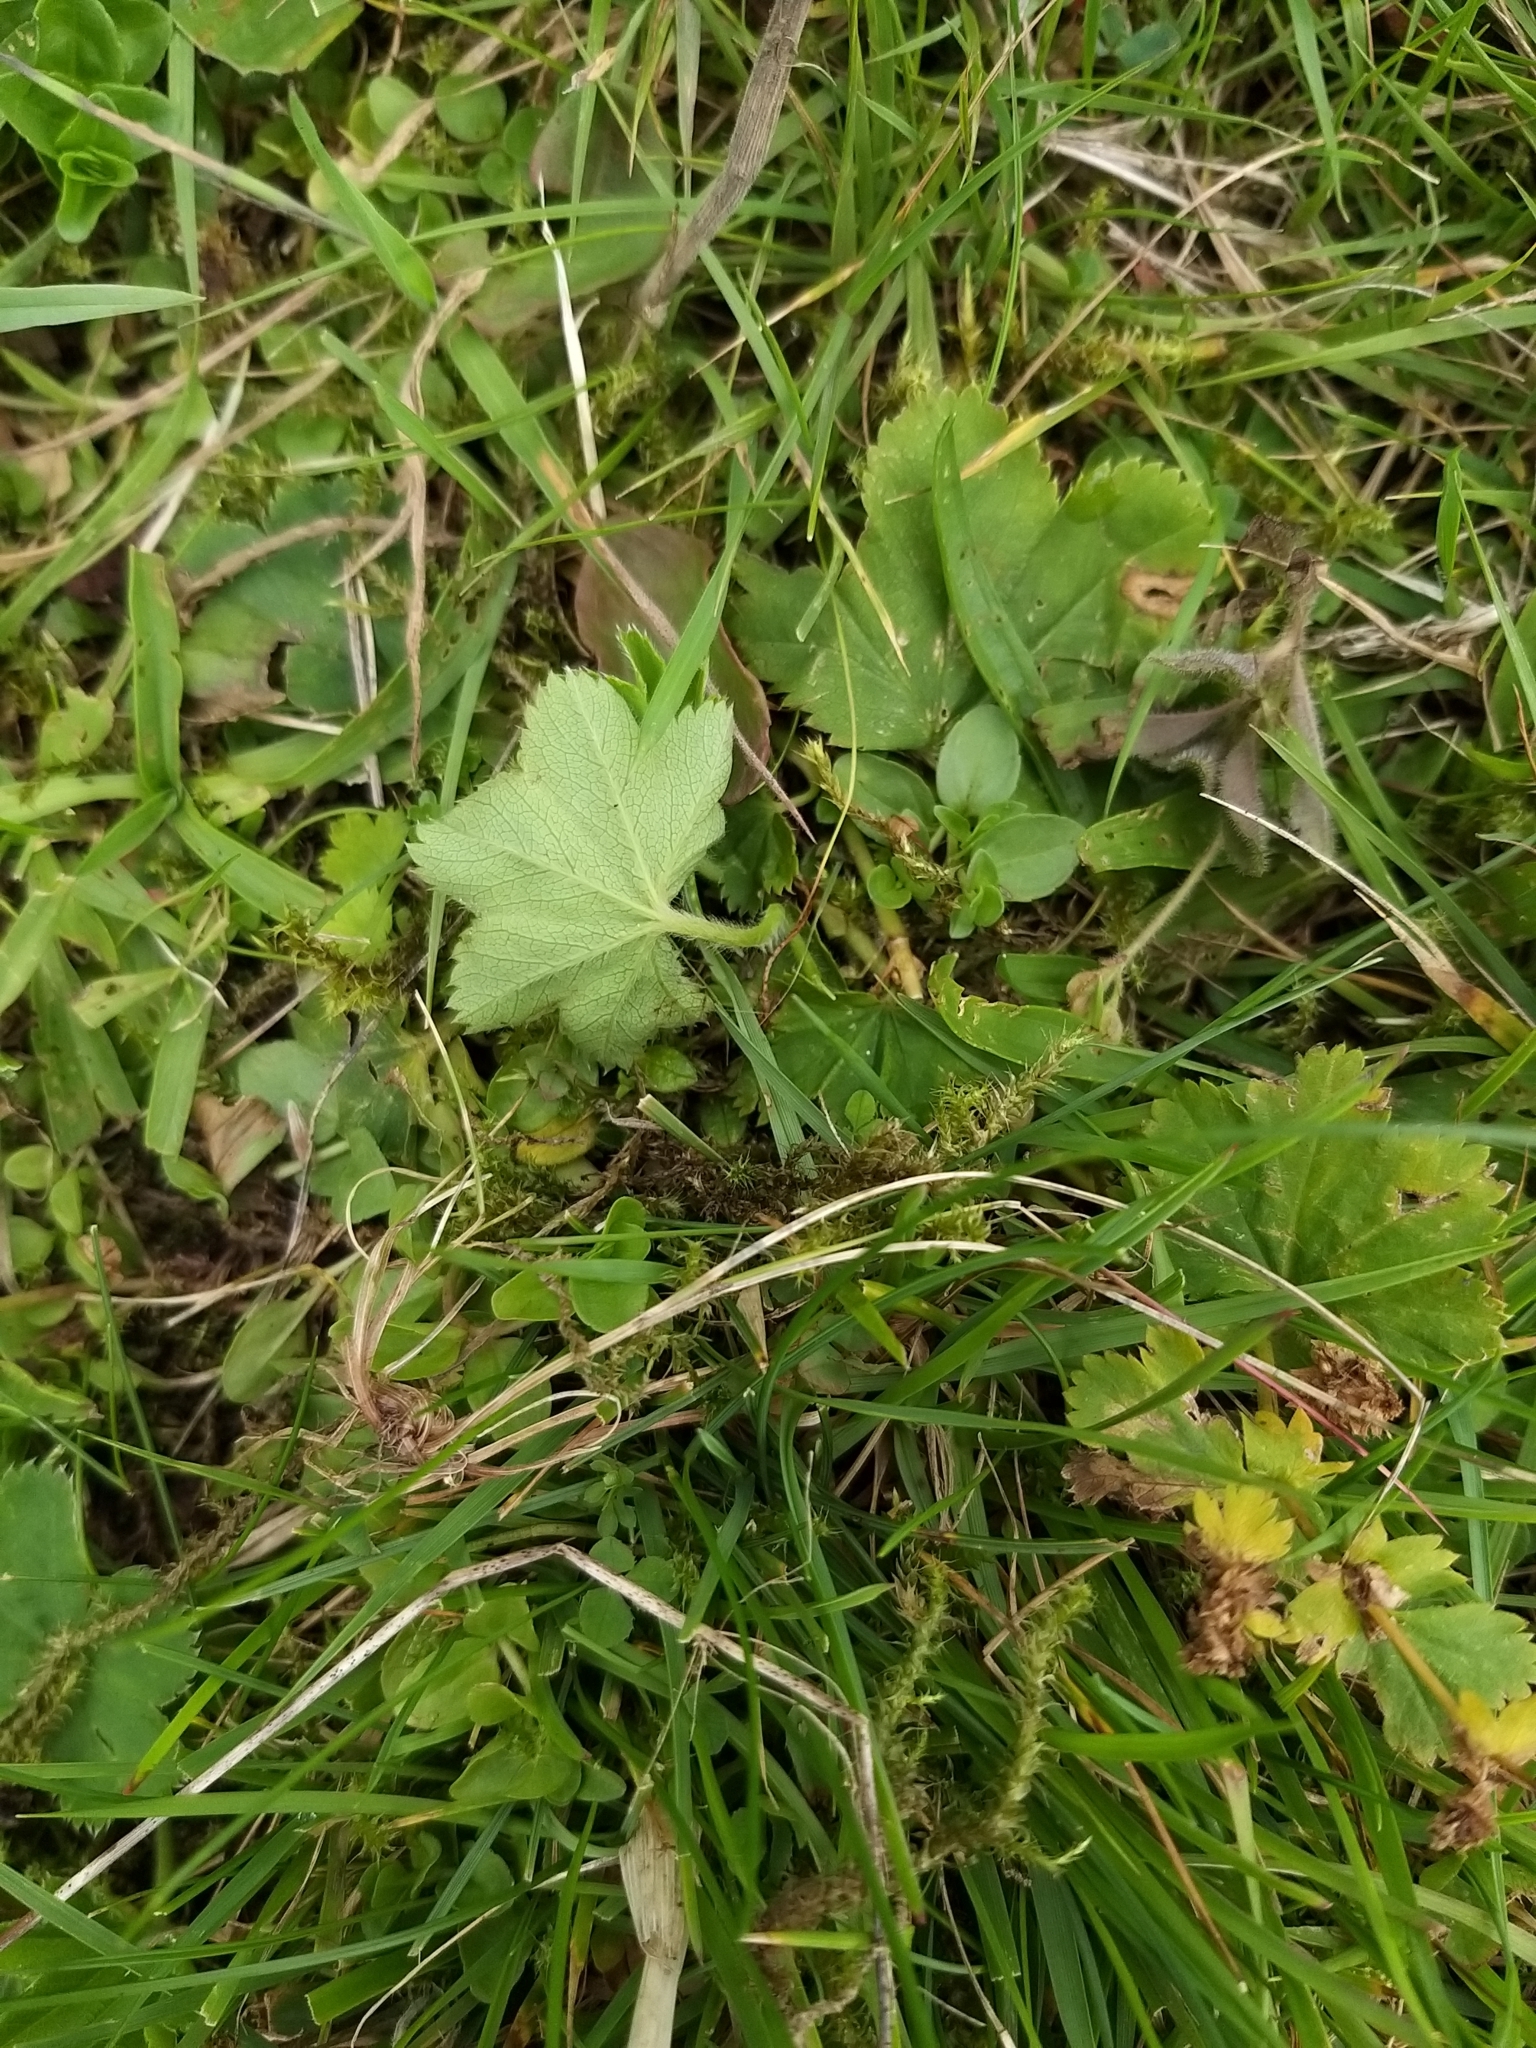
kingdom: Plantae
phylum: Tracheophyta
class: Magnoliopsida
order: Rosales
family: Rosaceae
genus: Alchemilla
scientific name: Alchemilla xanthochlora
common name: Intermediate lady's-mantle
